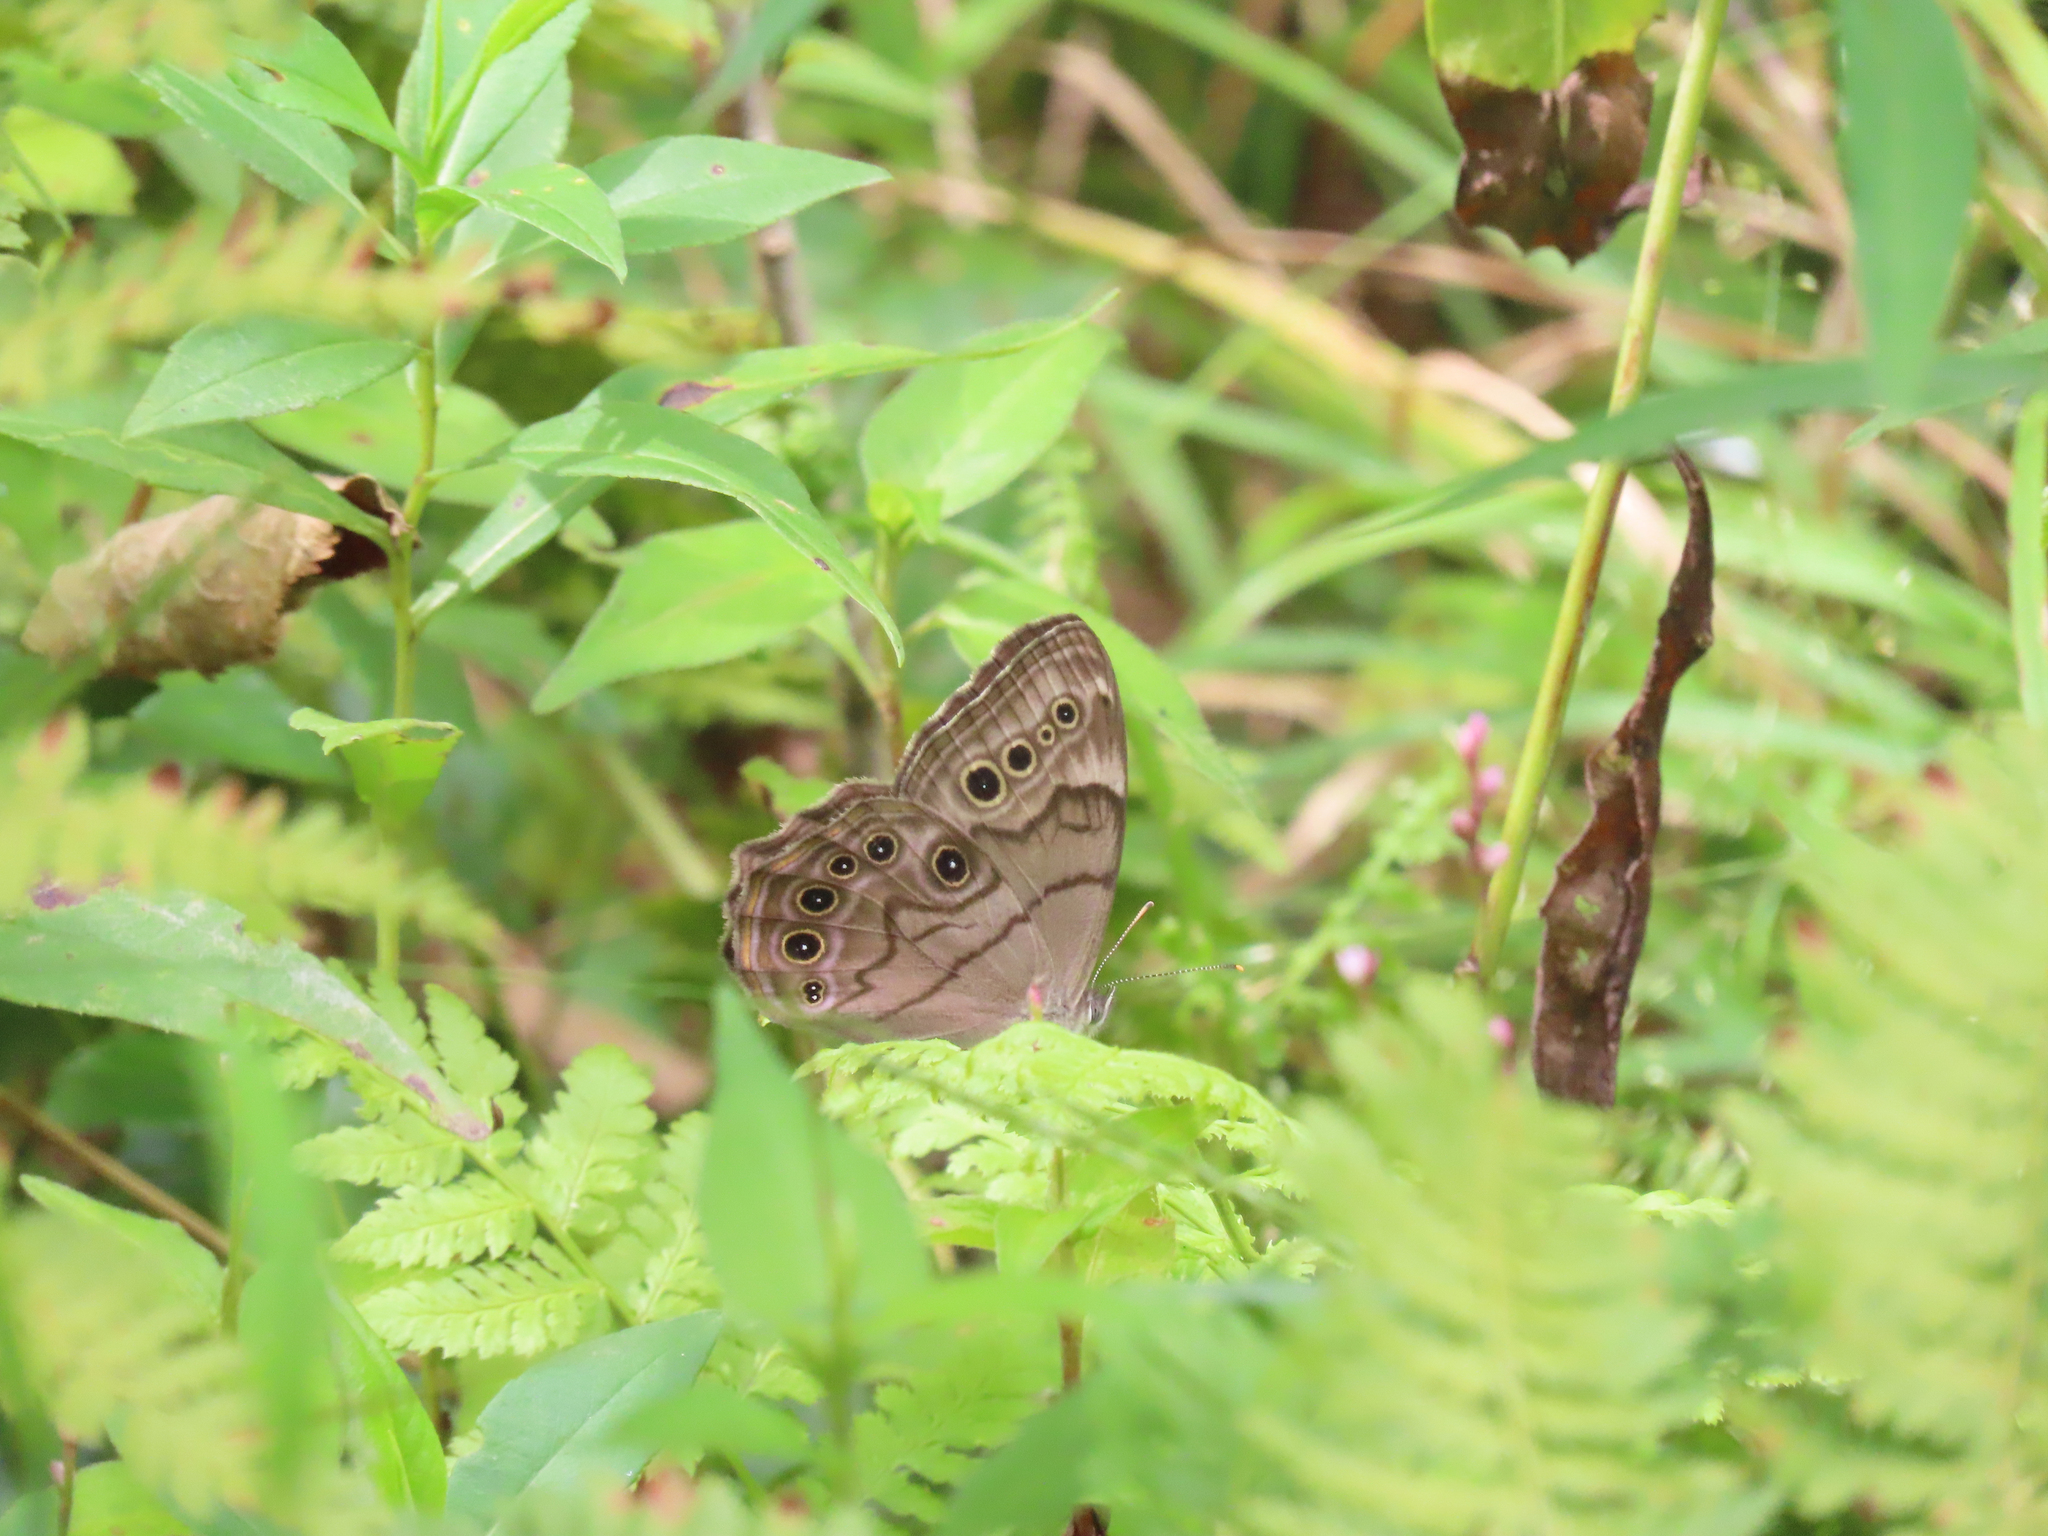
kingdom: Animalia
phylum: Arthropoda
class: Insecta
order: Lepidoptera
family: Nymphalidae
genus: Lethe
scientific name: Lethe anthedon
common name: Northern pearly-eye
